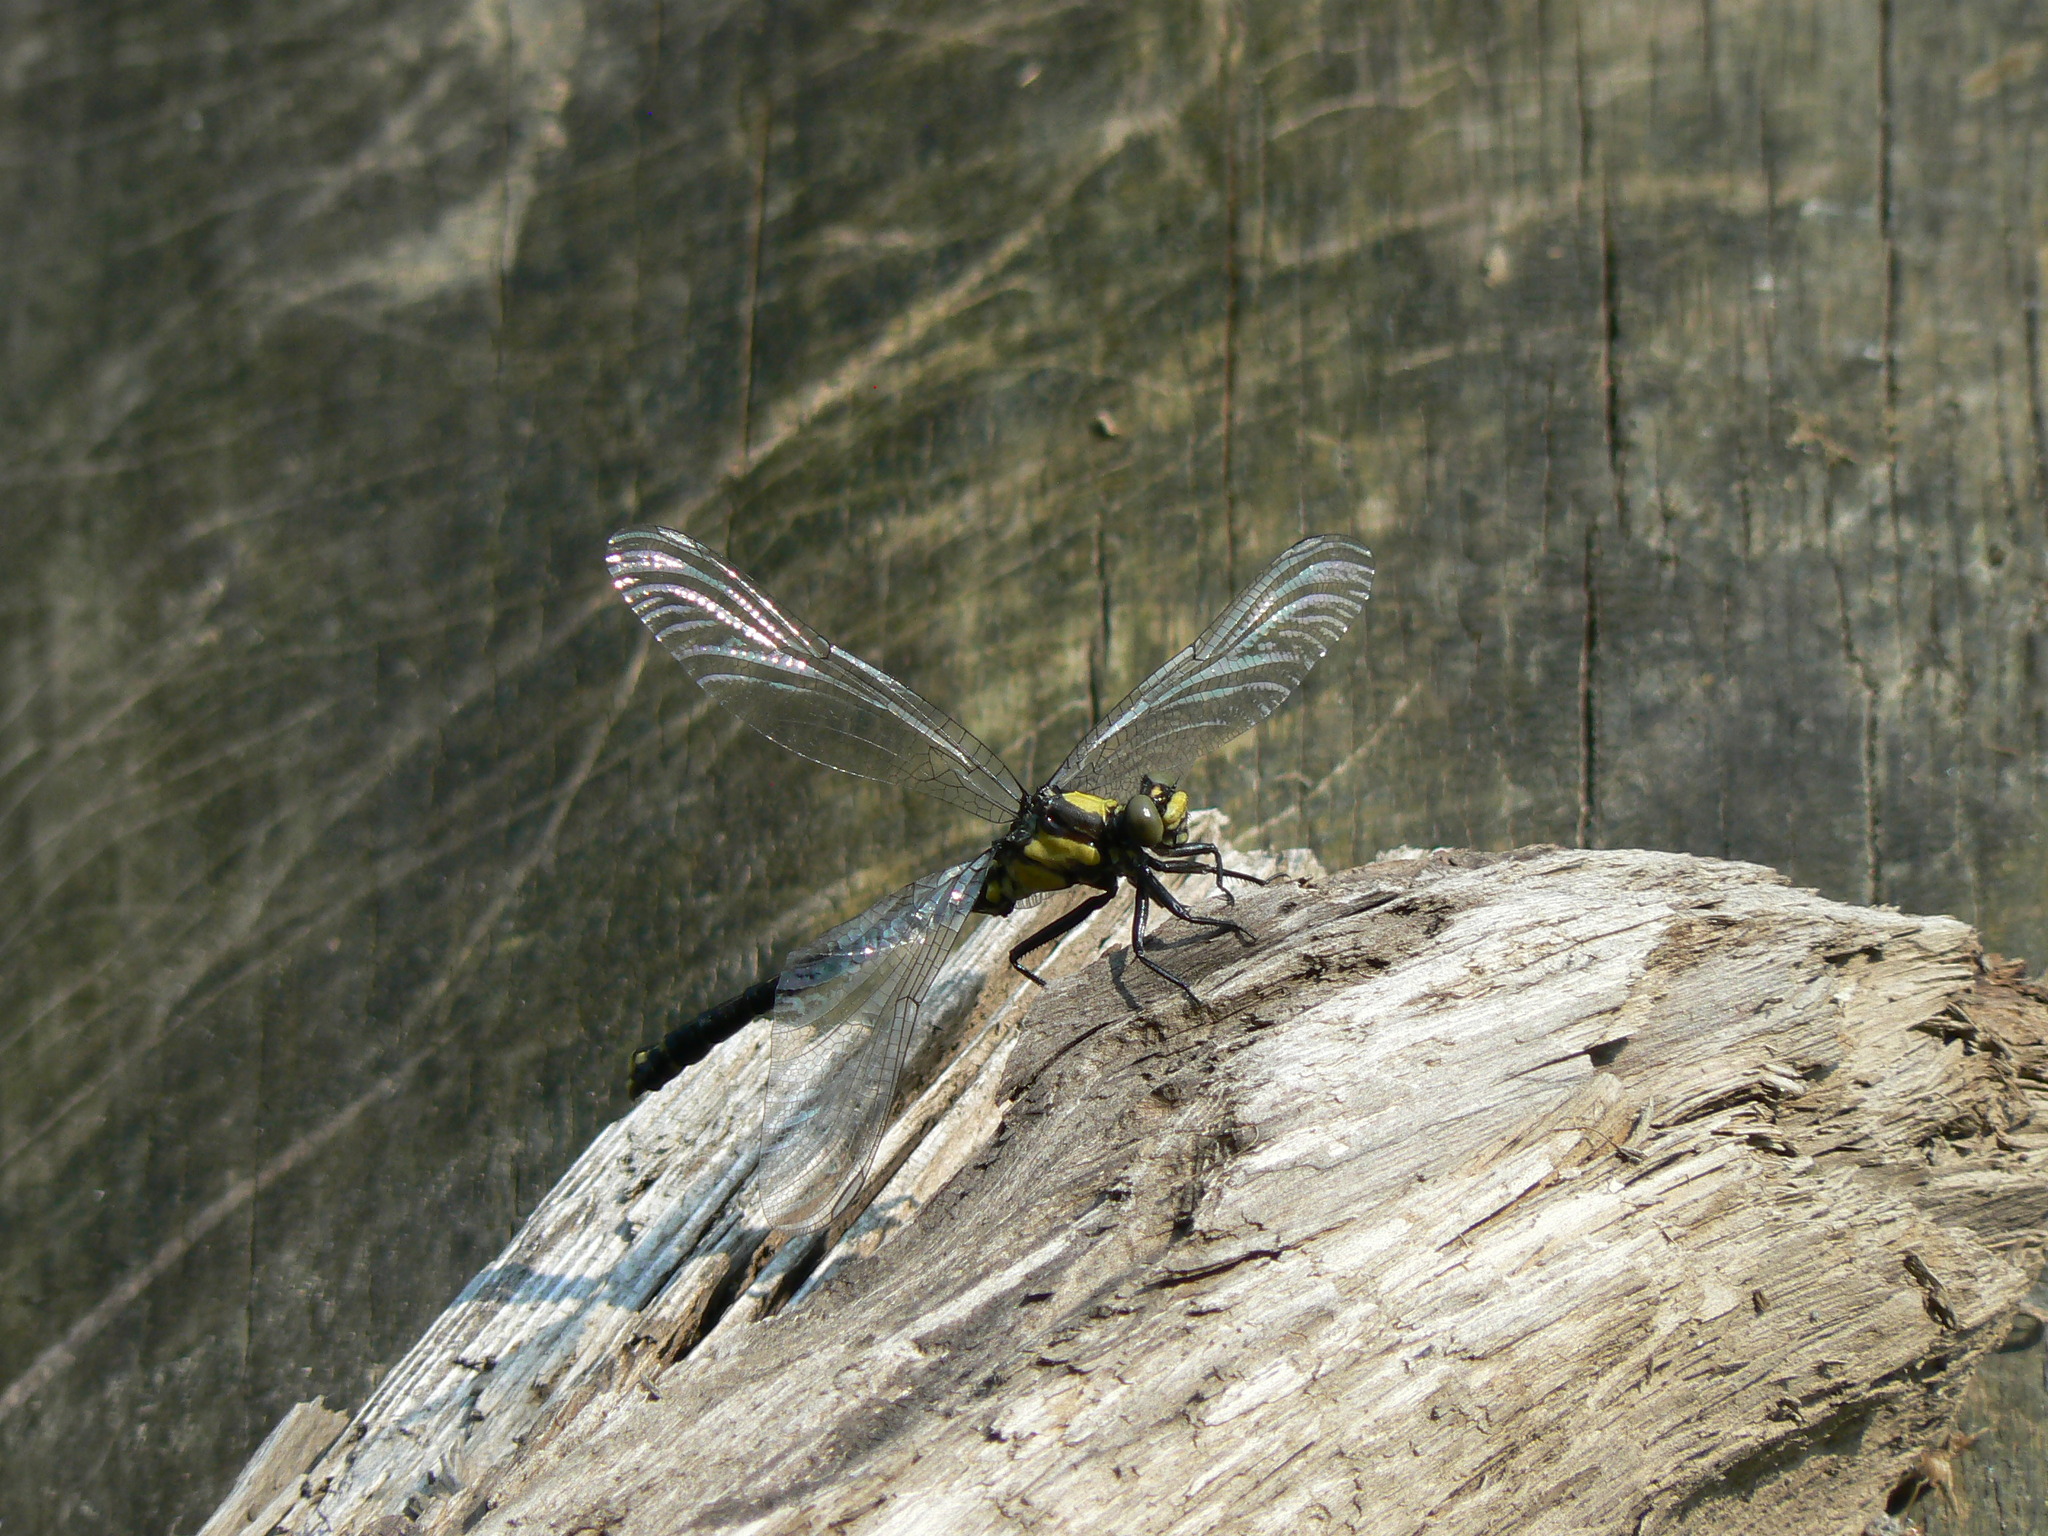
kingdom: Animalia
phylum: Arthropoda
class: Insecta
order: Odonata
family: Gomphidae
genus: Octogomphus
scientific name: Octogomphus specularis
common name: Grappletail
